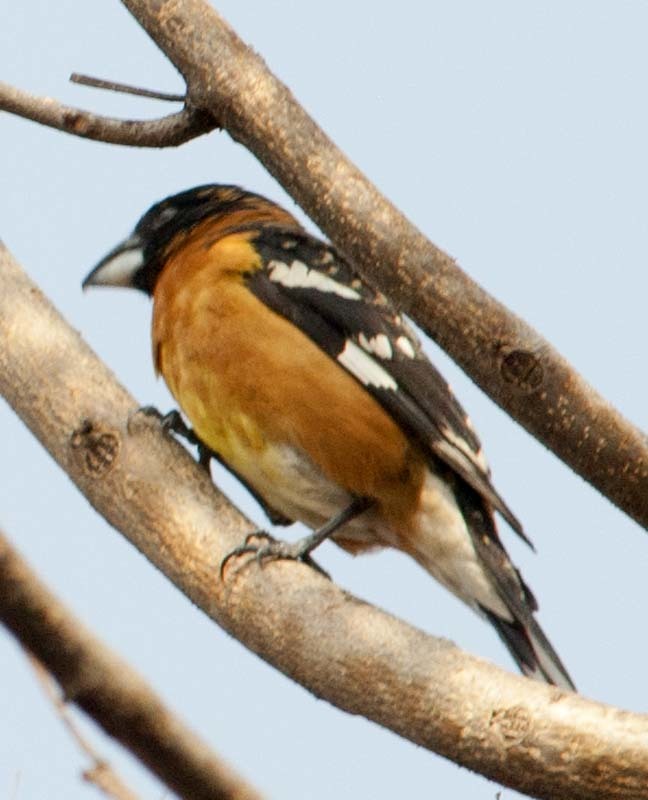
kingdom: Animalia
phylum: Chordata
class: Aves
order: Passeriformes
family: Cardinalidae
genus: Pheucticus
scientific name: Pheucticus melanocephalus
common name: Black-headed grosbeak
